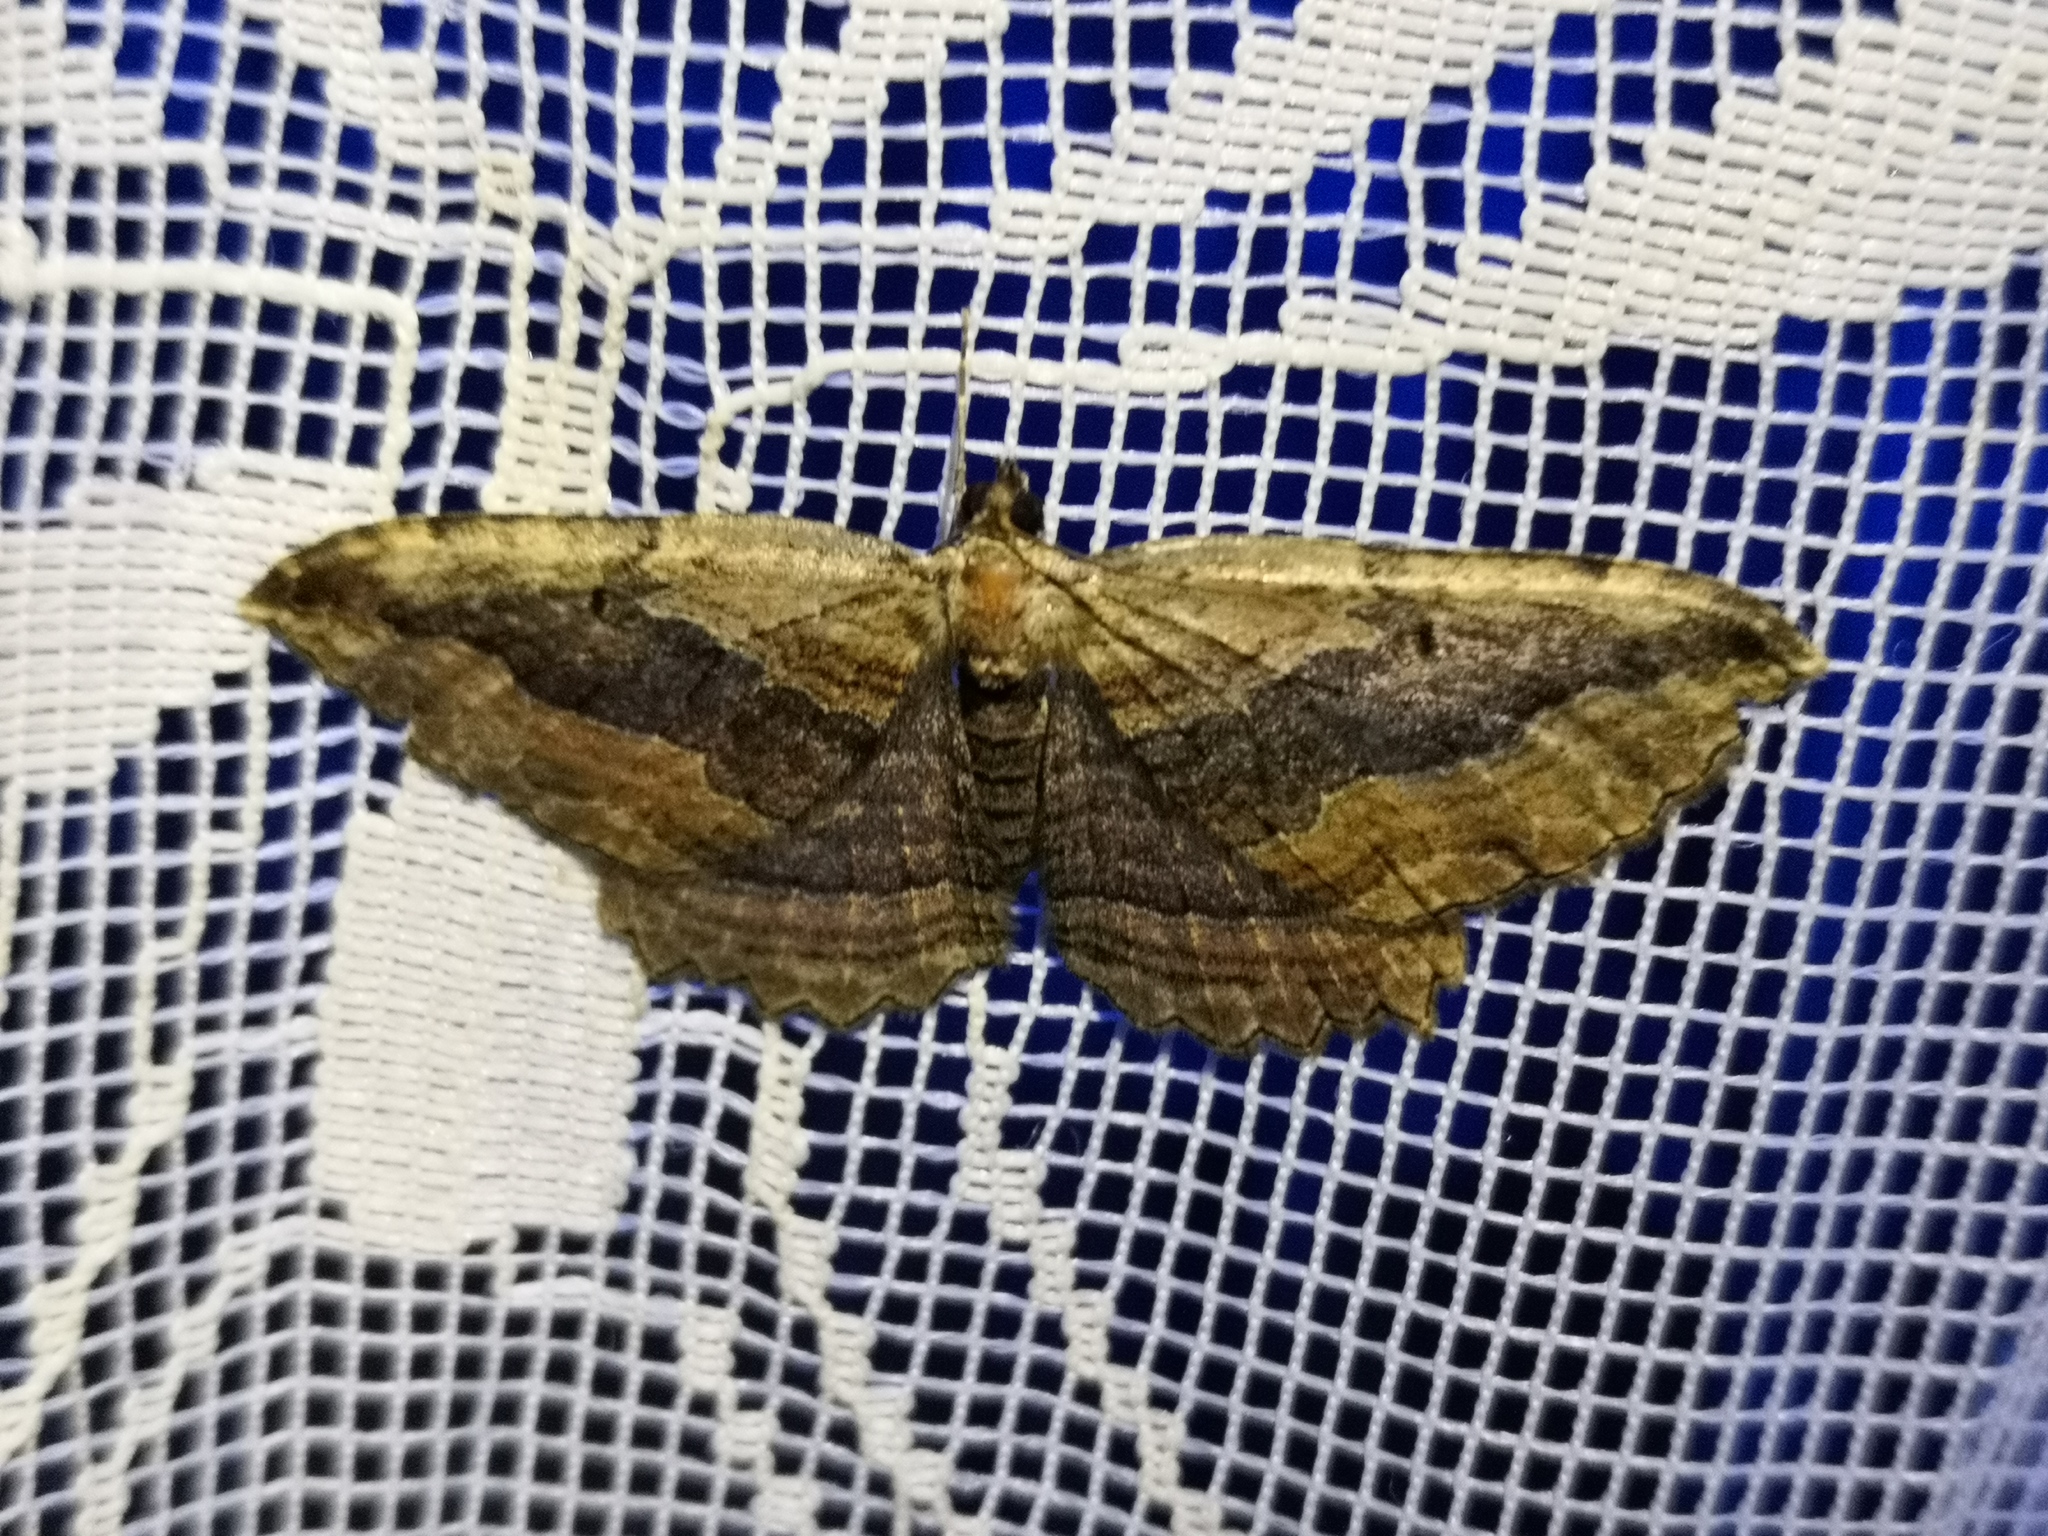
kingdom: Animalia
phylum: Arthropoda
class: Insecta
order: Lepidoptera
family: Geometridae
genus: Philereme
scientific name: Philereme transversata
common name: Dark umber
